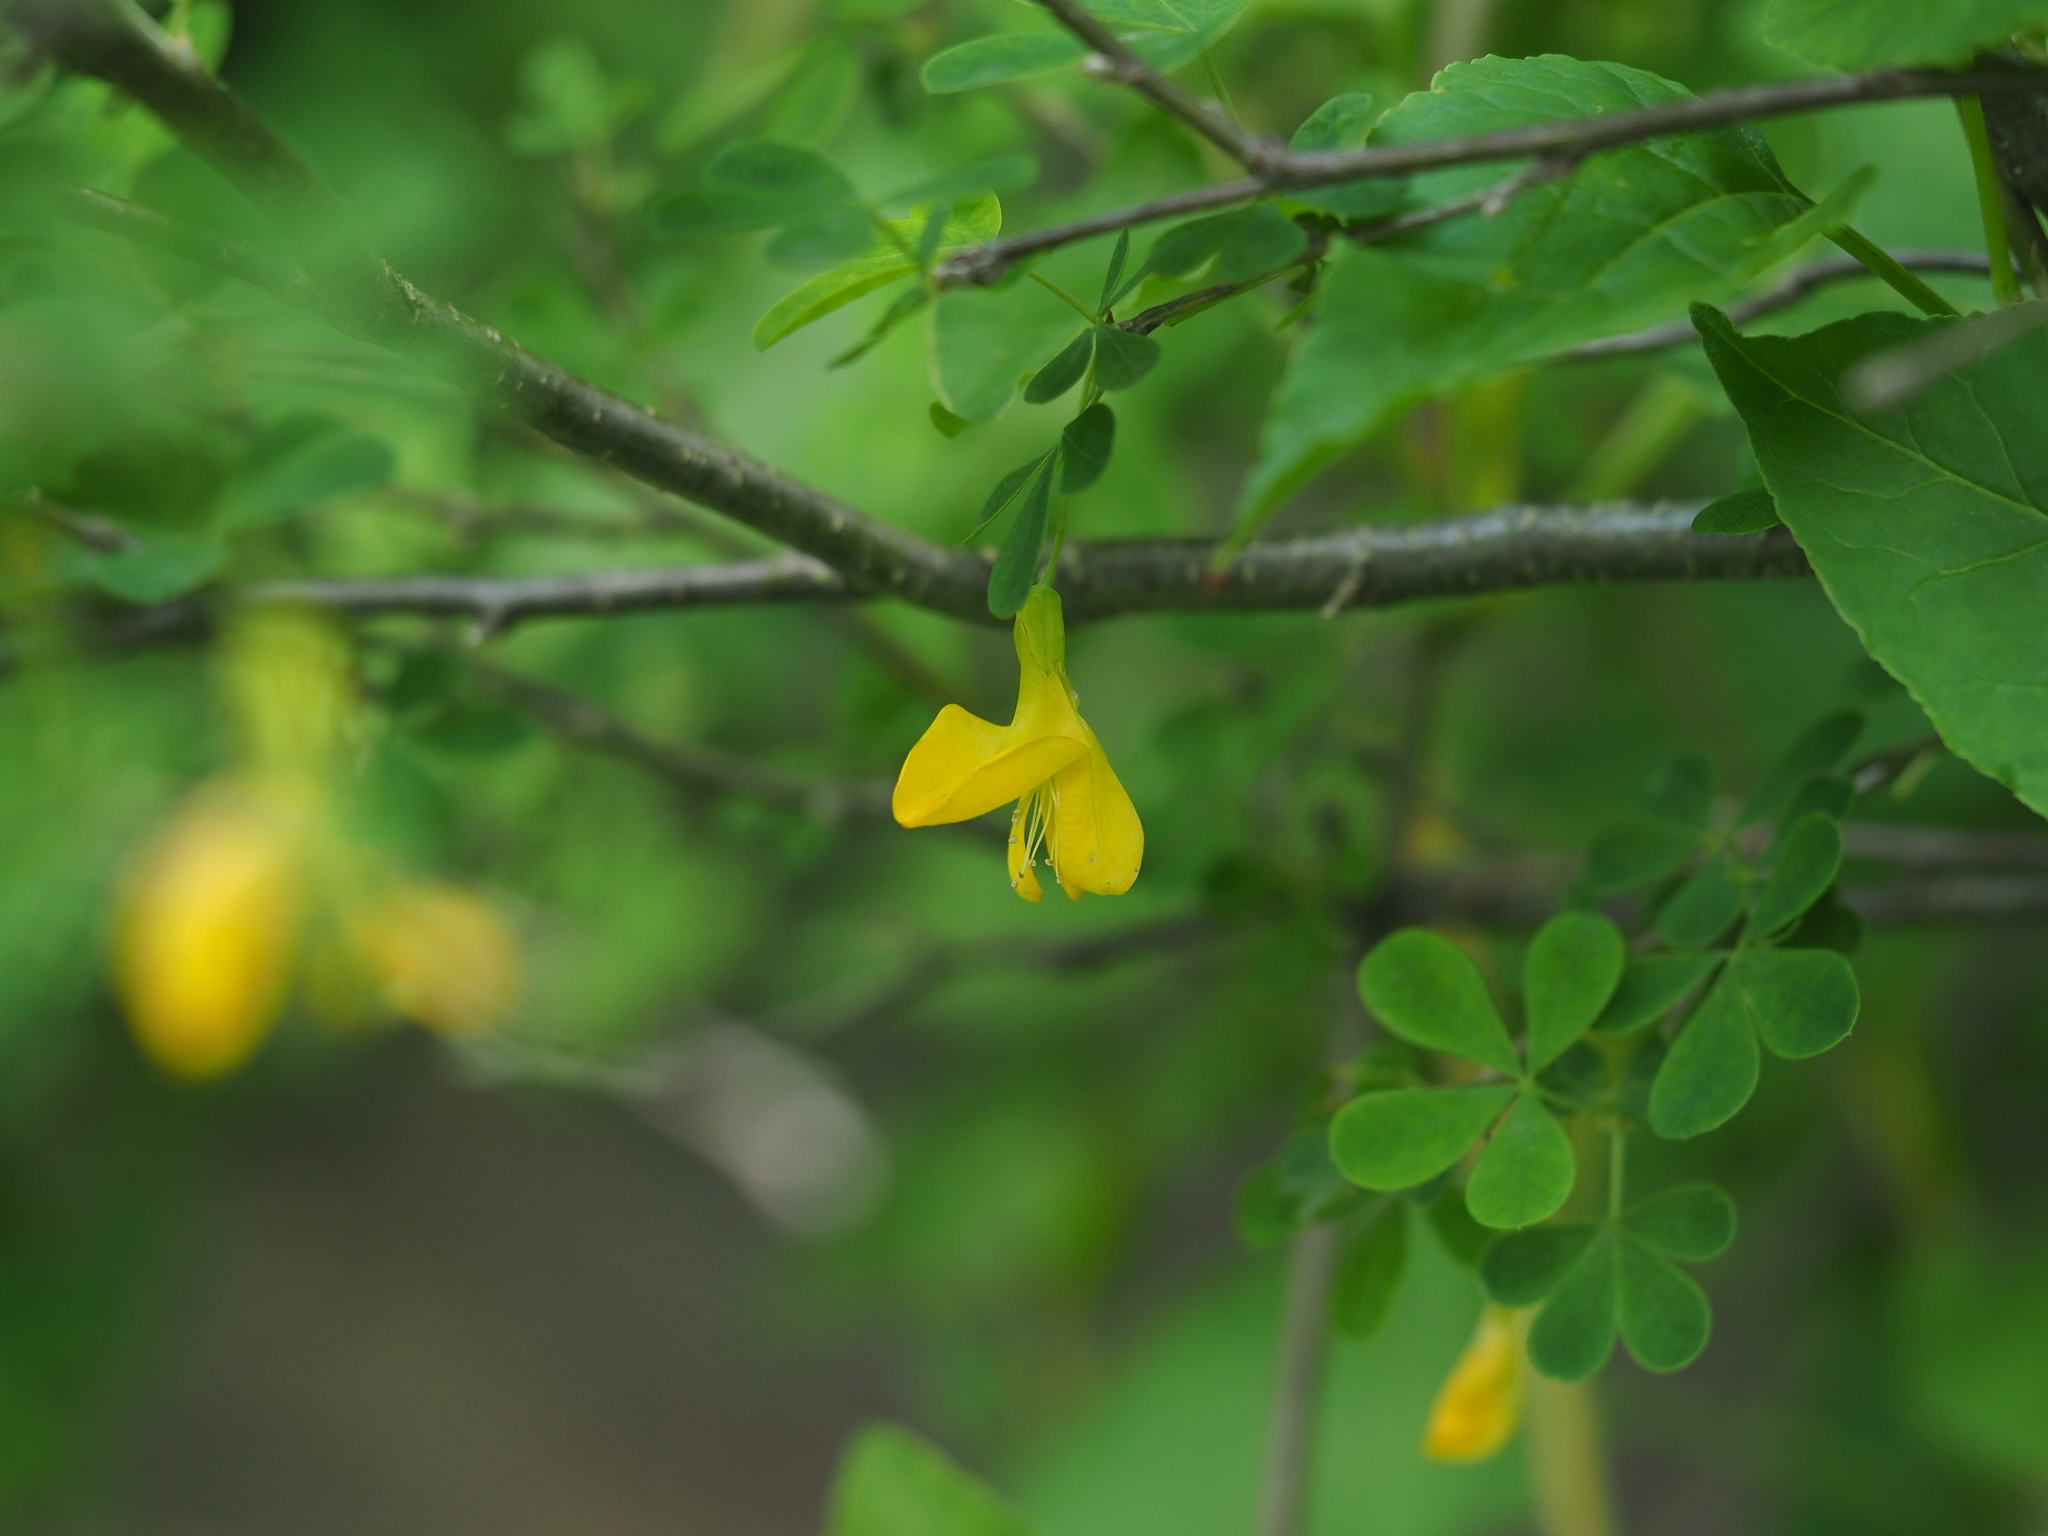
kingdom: Plantae
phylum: Tracheophyta
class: Magnoliopsida
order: Fabales
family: Fabaceae
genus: Caragana
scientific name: Caragana frutex
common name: Russian peashrub
